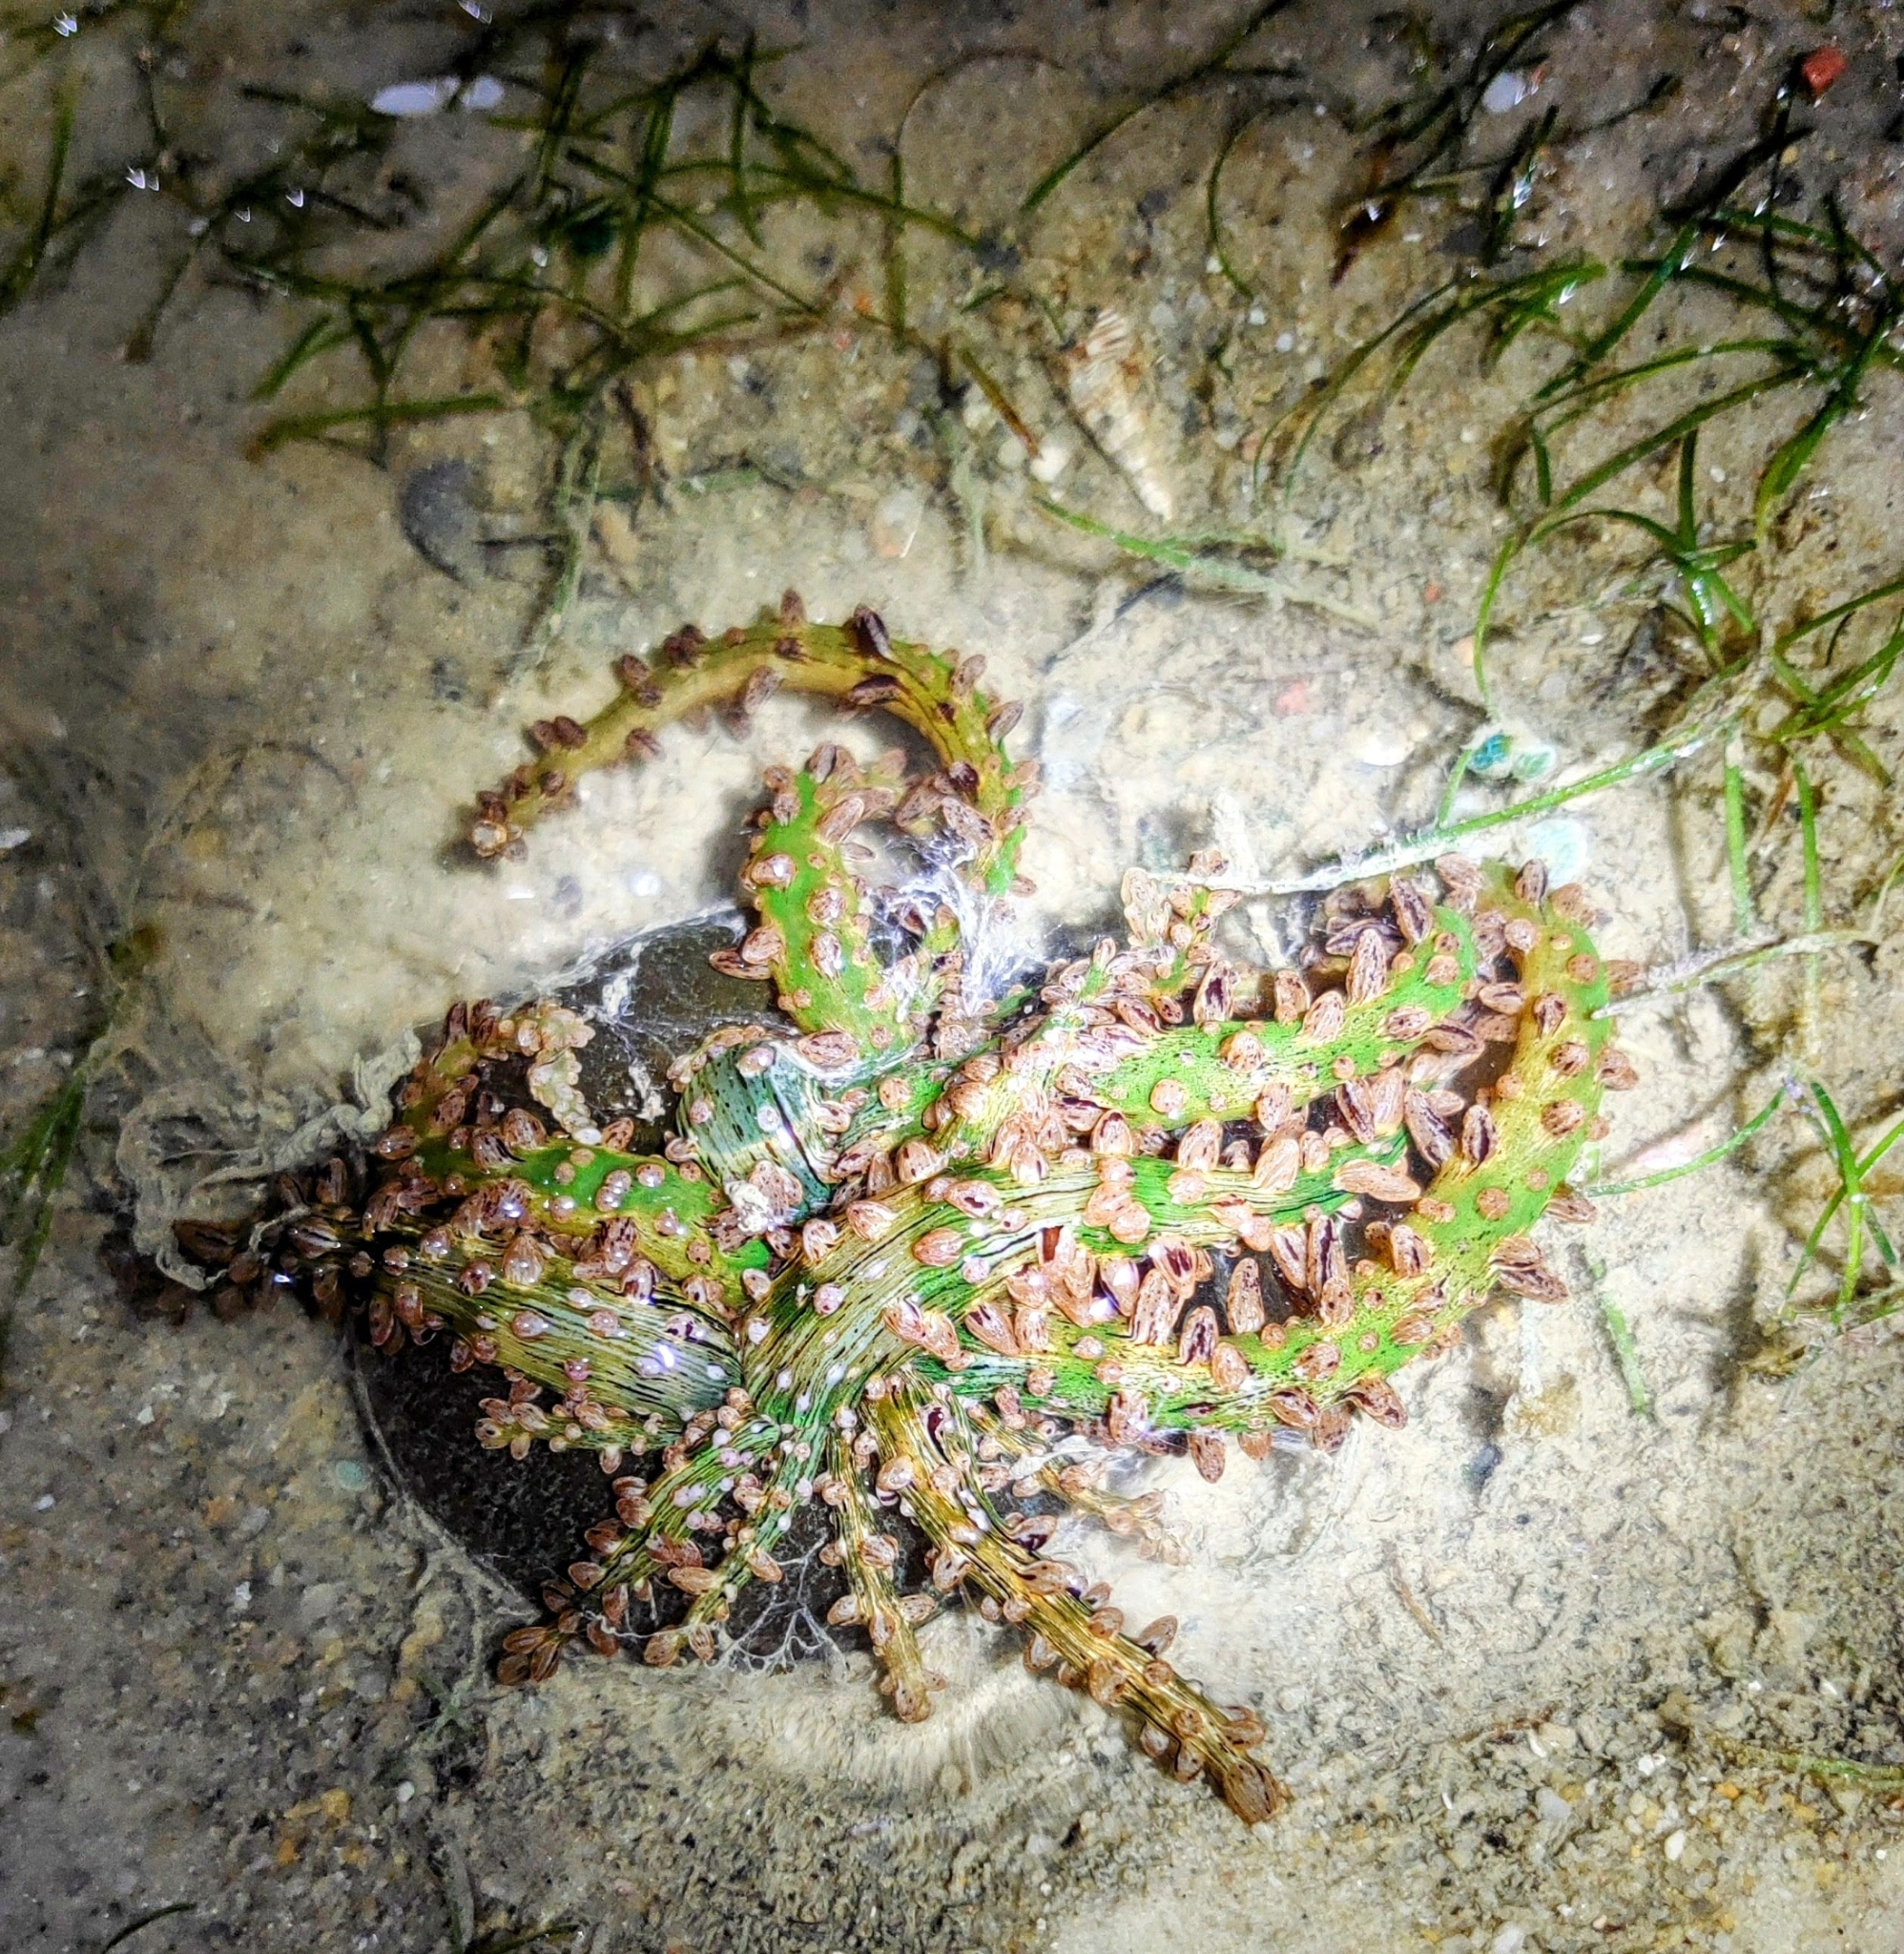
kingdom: Animalia
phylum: Cnidaria
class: Anthozoa
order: Actiniaria
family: Actinodendridae
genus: Actinostephanus
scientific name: Actinostephanus haeckeli
